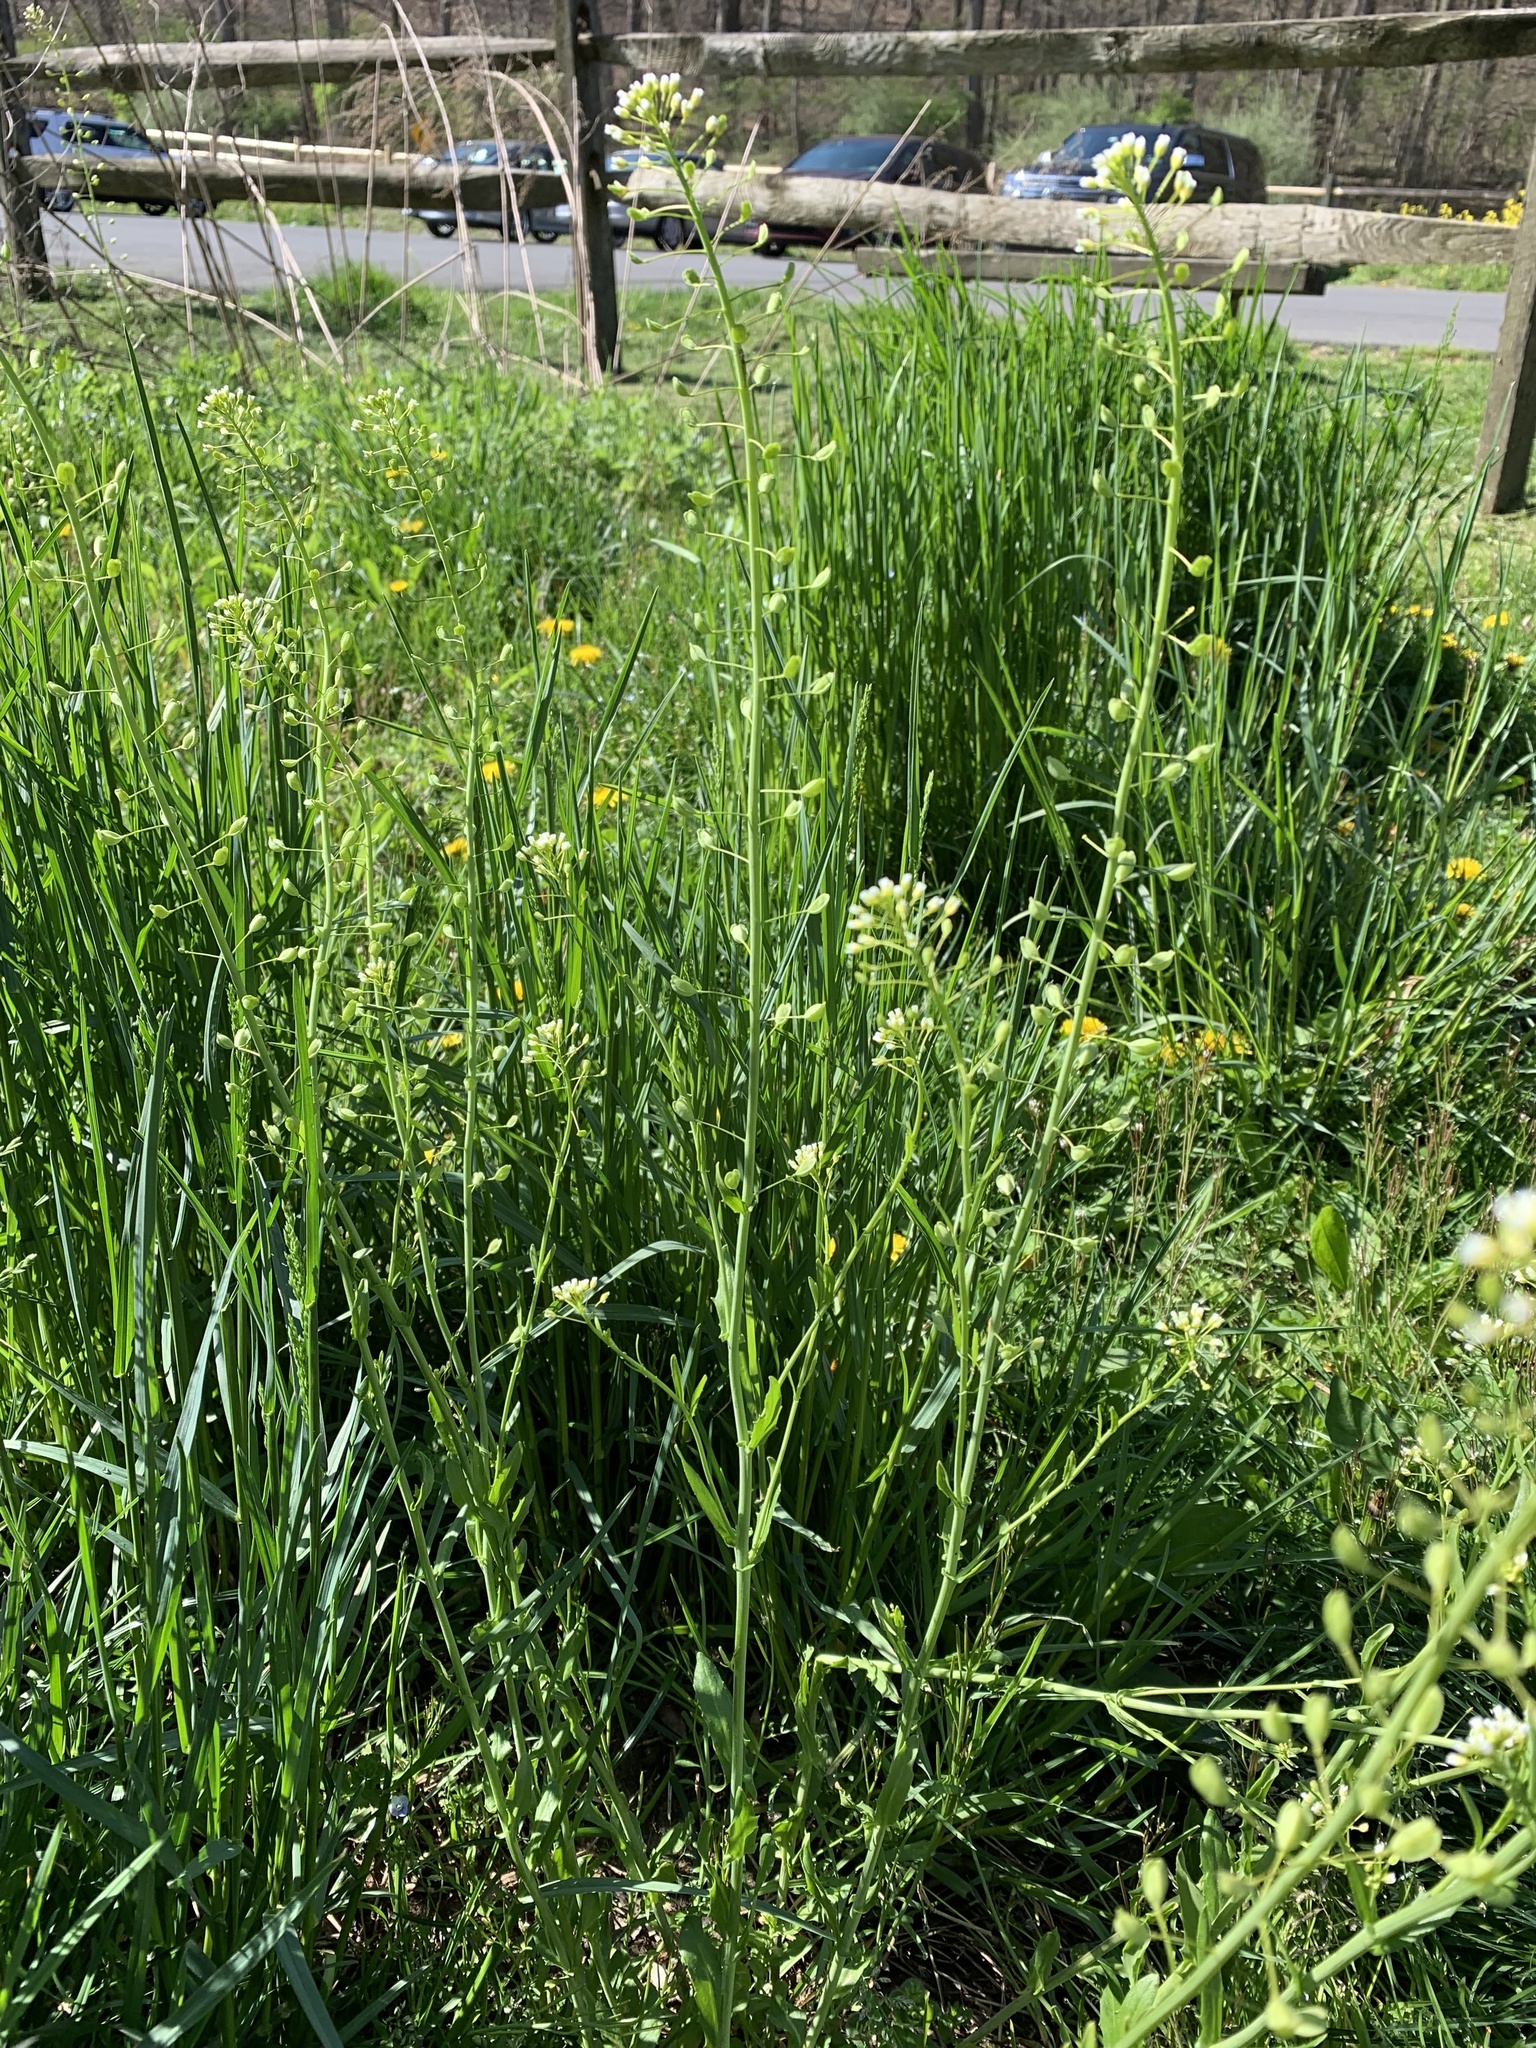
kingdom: Plantae
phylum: Tracheophyta
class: Magnoliopsida
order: Brassicales
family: Brassicaceae
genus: Mummenhoffia
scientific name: Mummenhoffia alliacea
